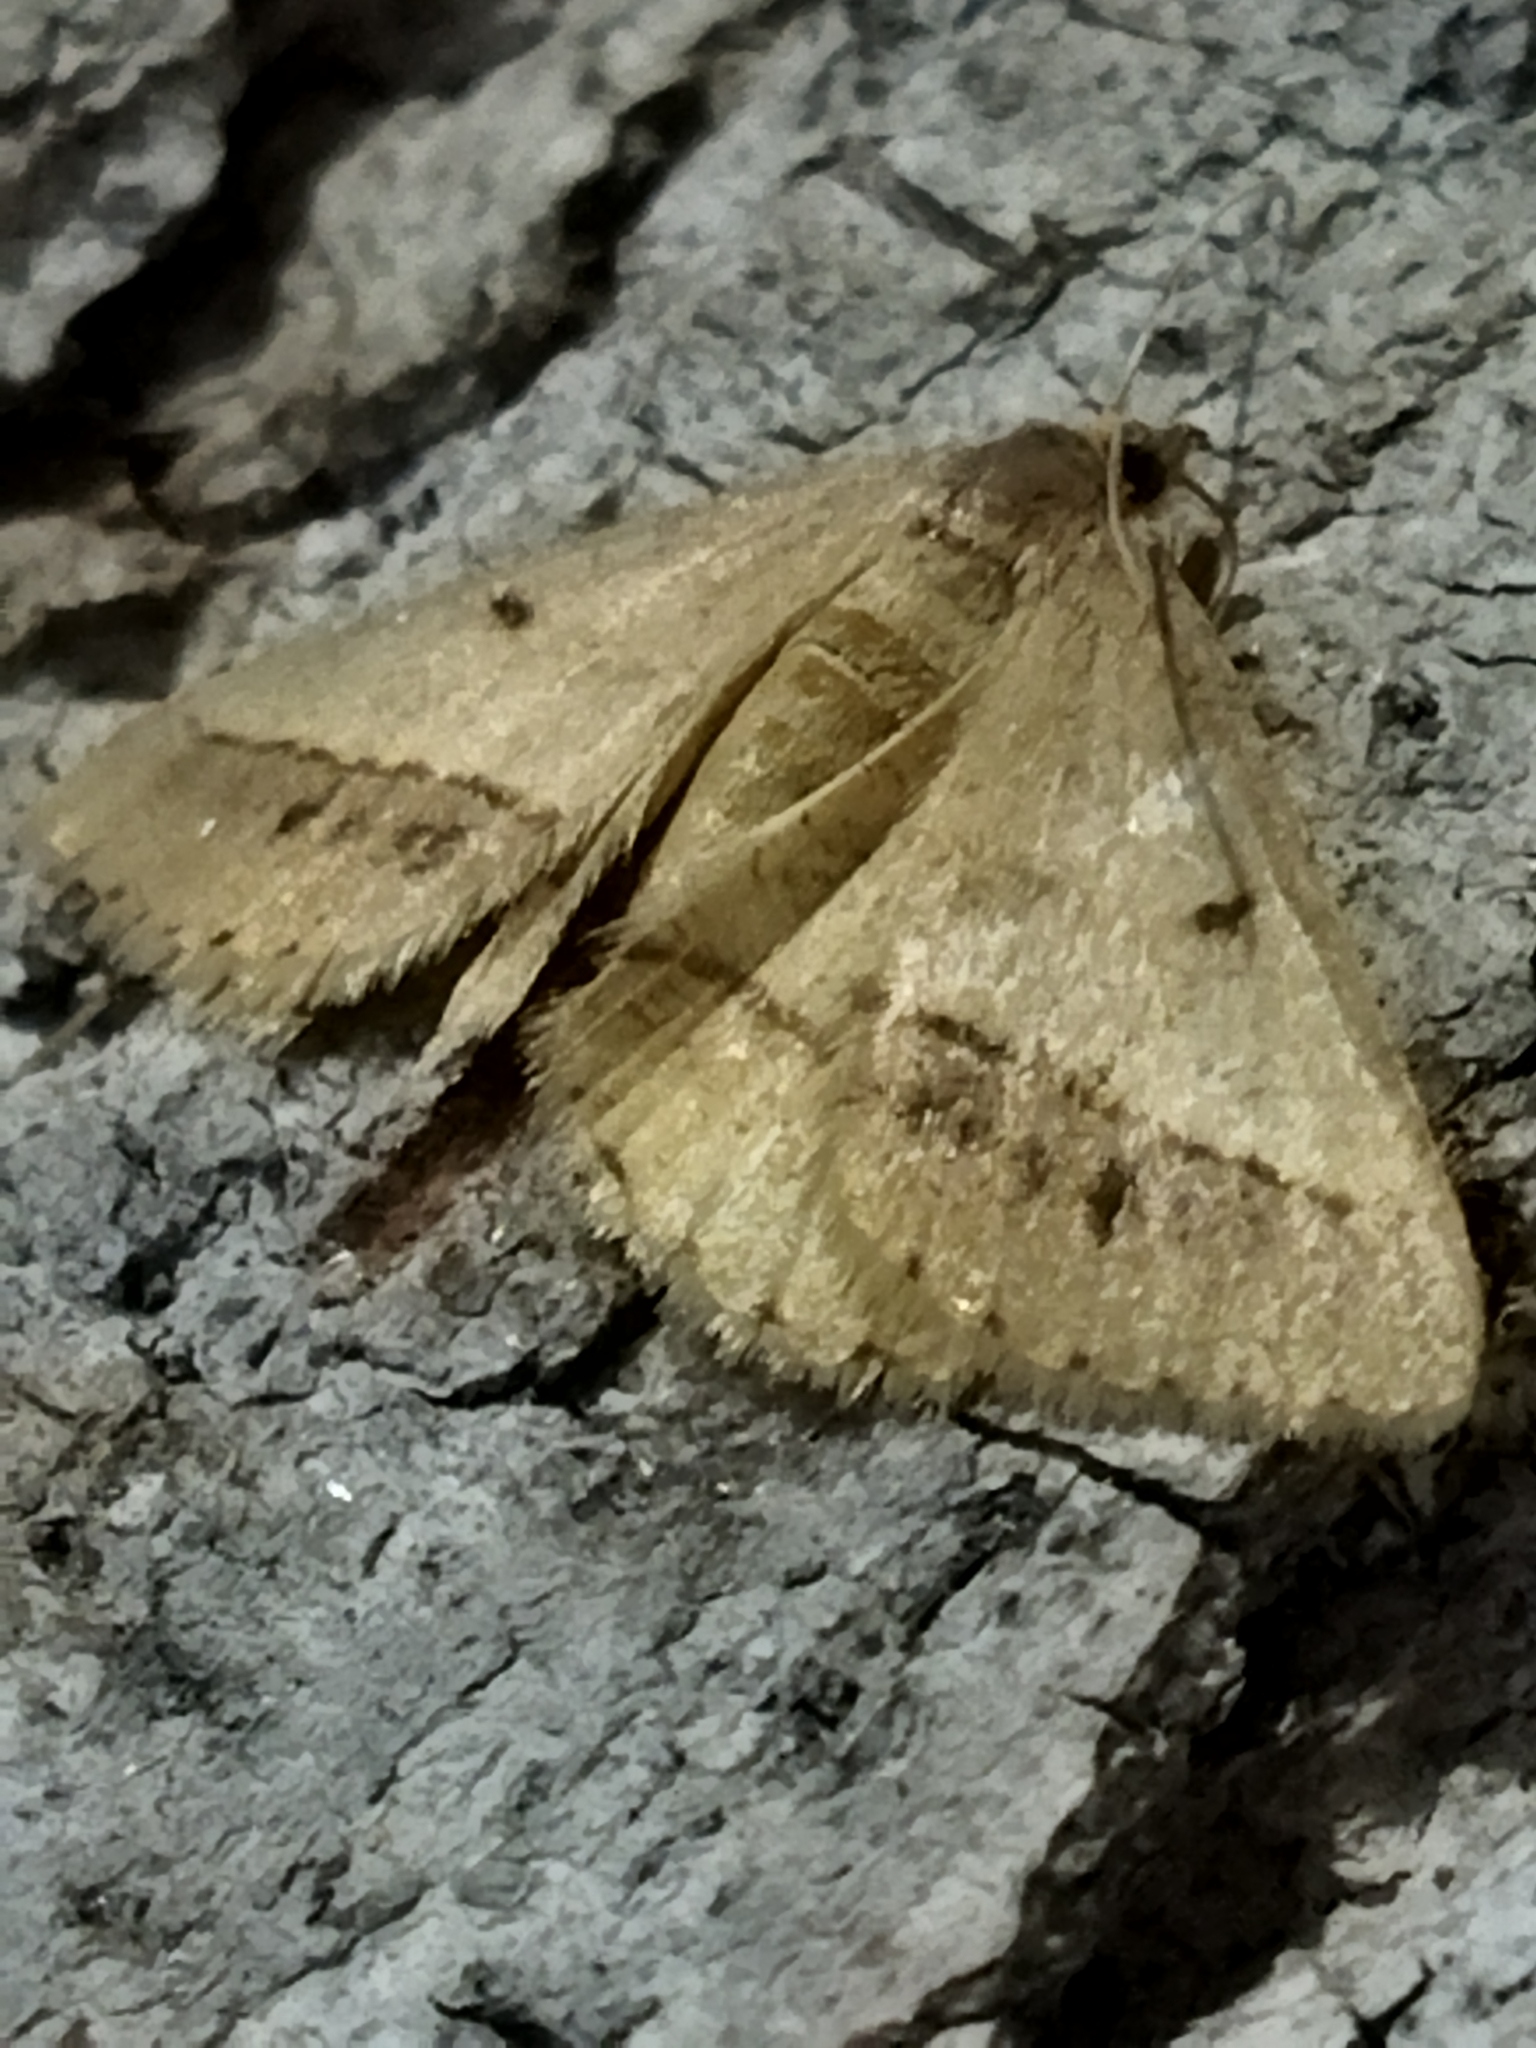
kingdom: Animalia
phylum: Arthropoda
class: Insecta
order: Lepidoptera
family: Geometridae
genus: Tephrina
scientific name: Tephrina arenacearia
